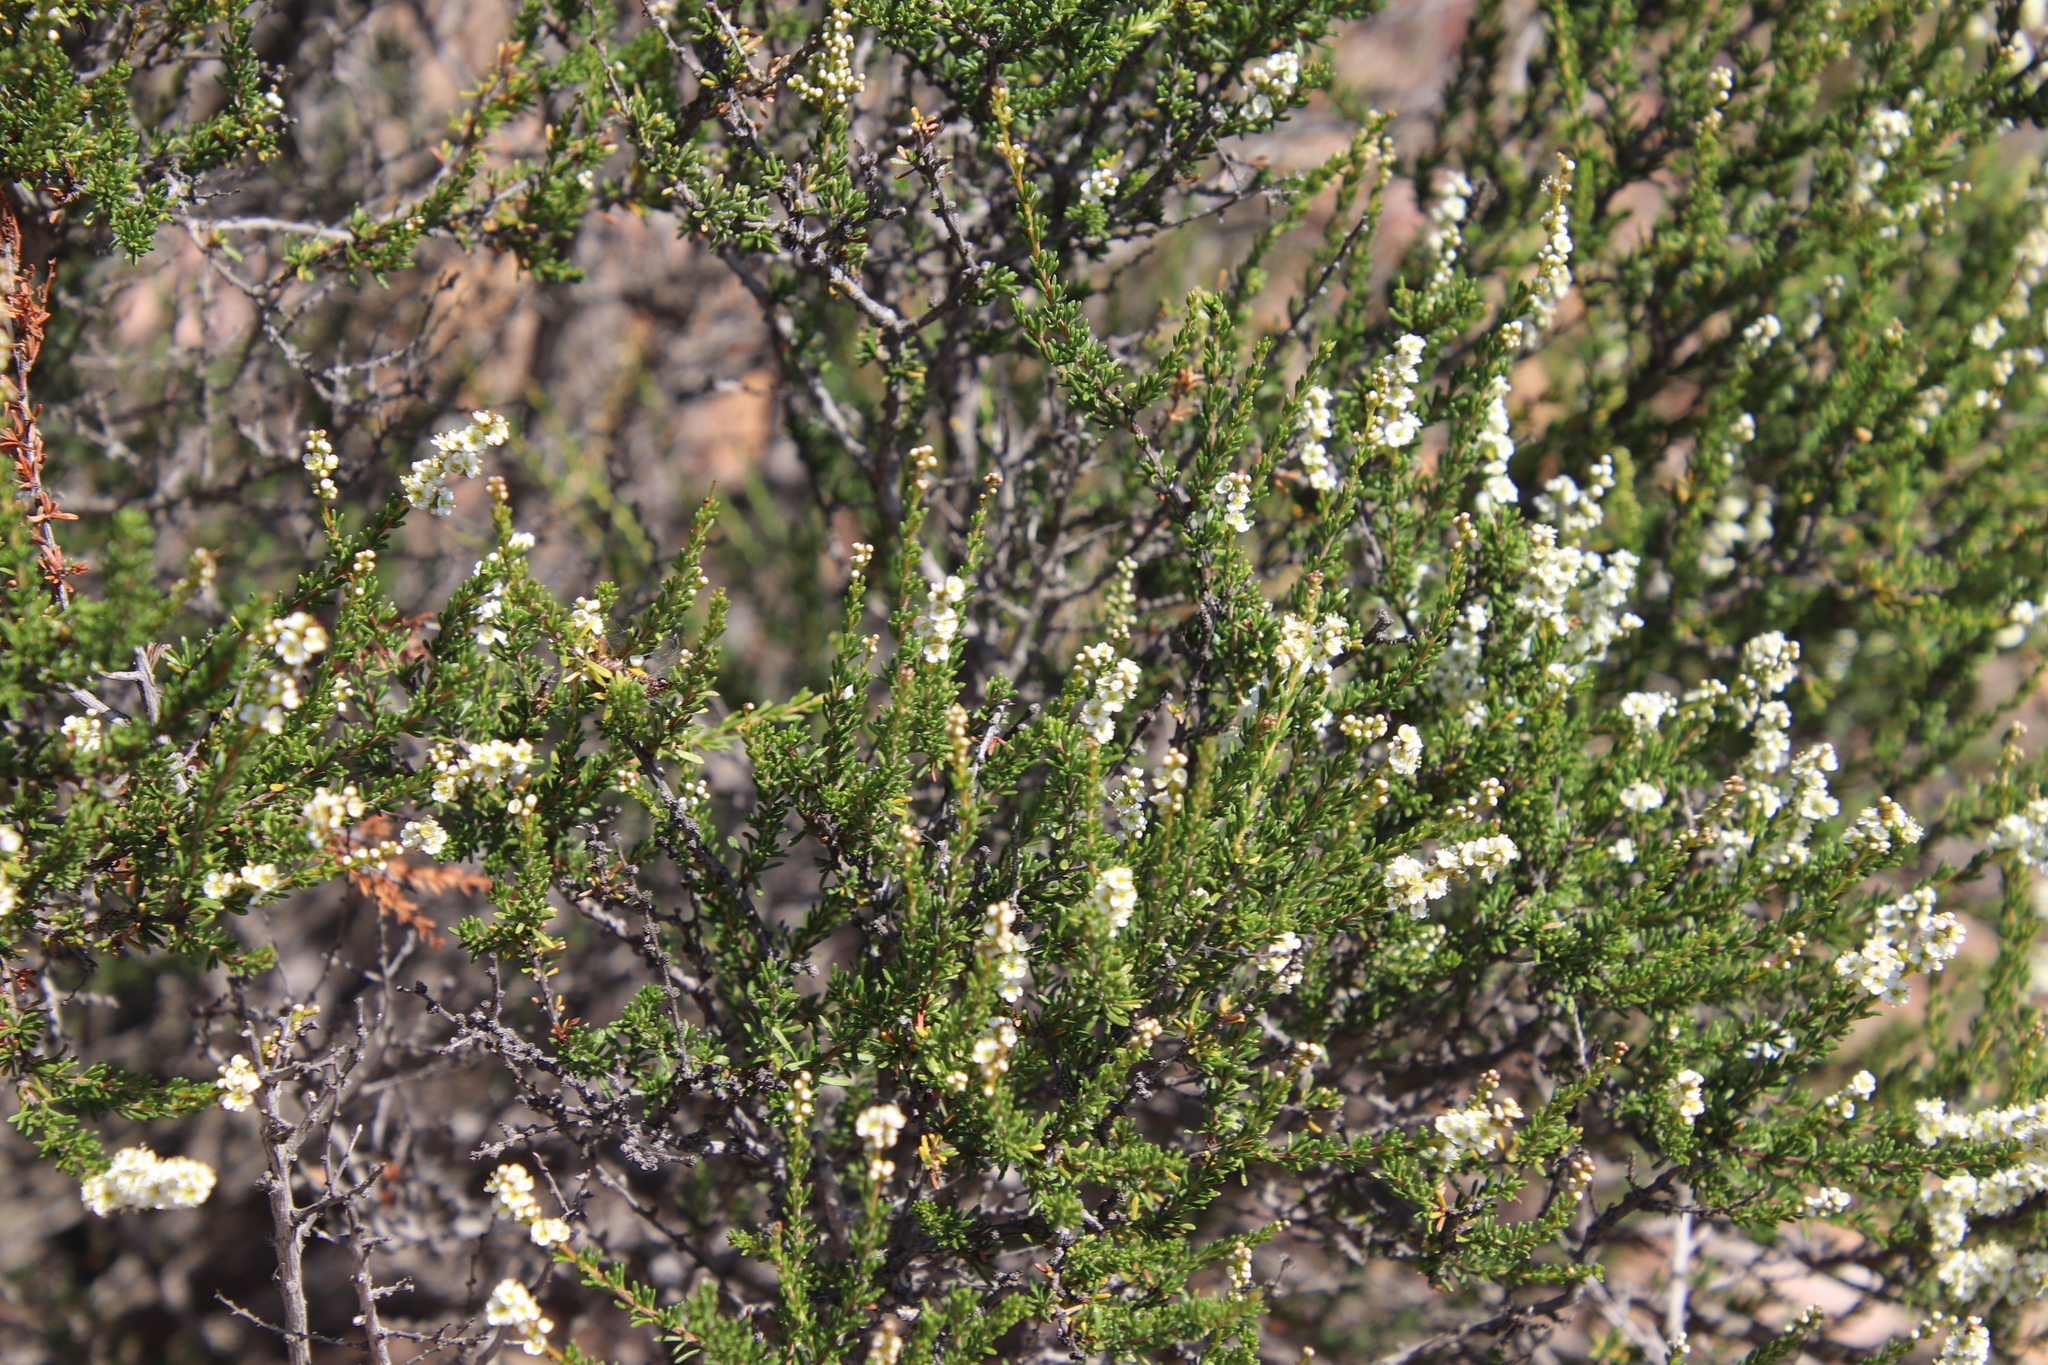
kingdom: Plantae
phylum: Tracheophyta
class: Magnoliopsida
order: Rosales
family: Rosaceae
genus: Adenostoma
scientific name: Adenostoma fasciculatum
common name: Chamise
